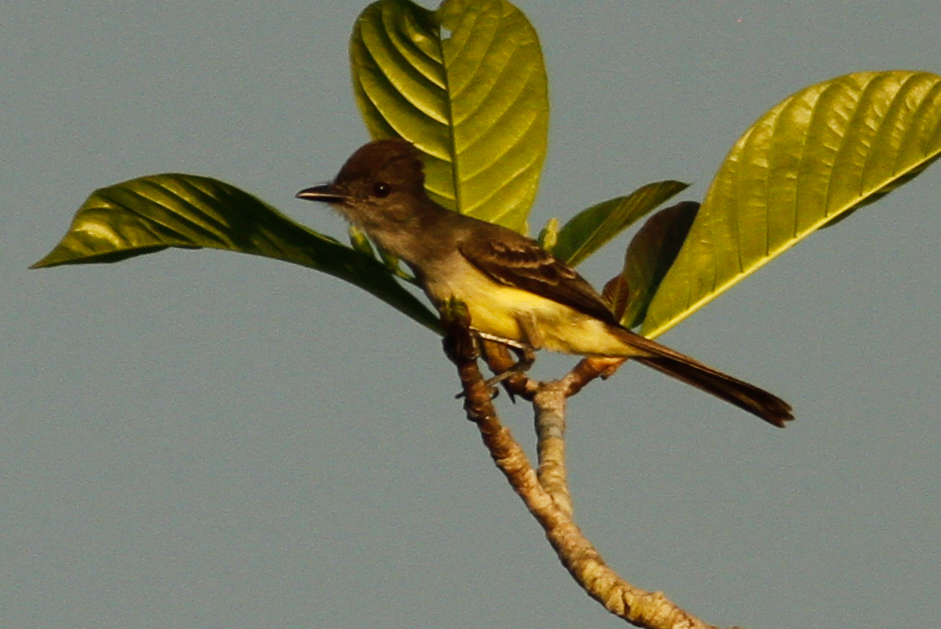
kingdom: Animalia
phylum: Chordata
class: Aves
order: Passeriformes
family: Tyrannidae
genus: Myiarchus
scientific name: Myiarchus tuberculifer
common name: Dusky-capped flycatcher
